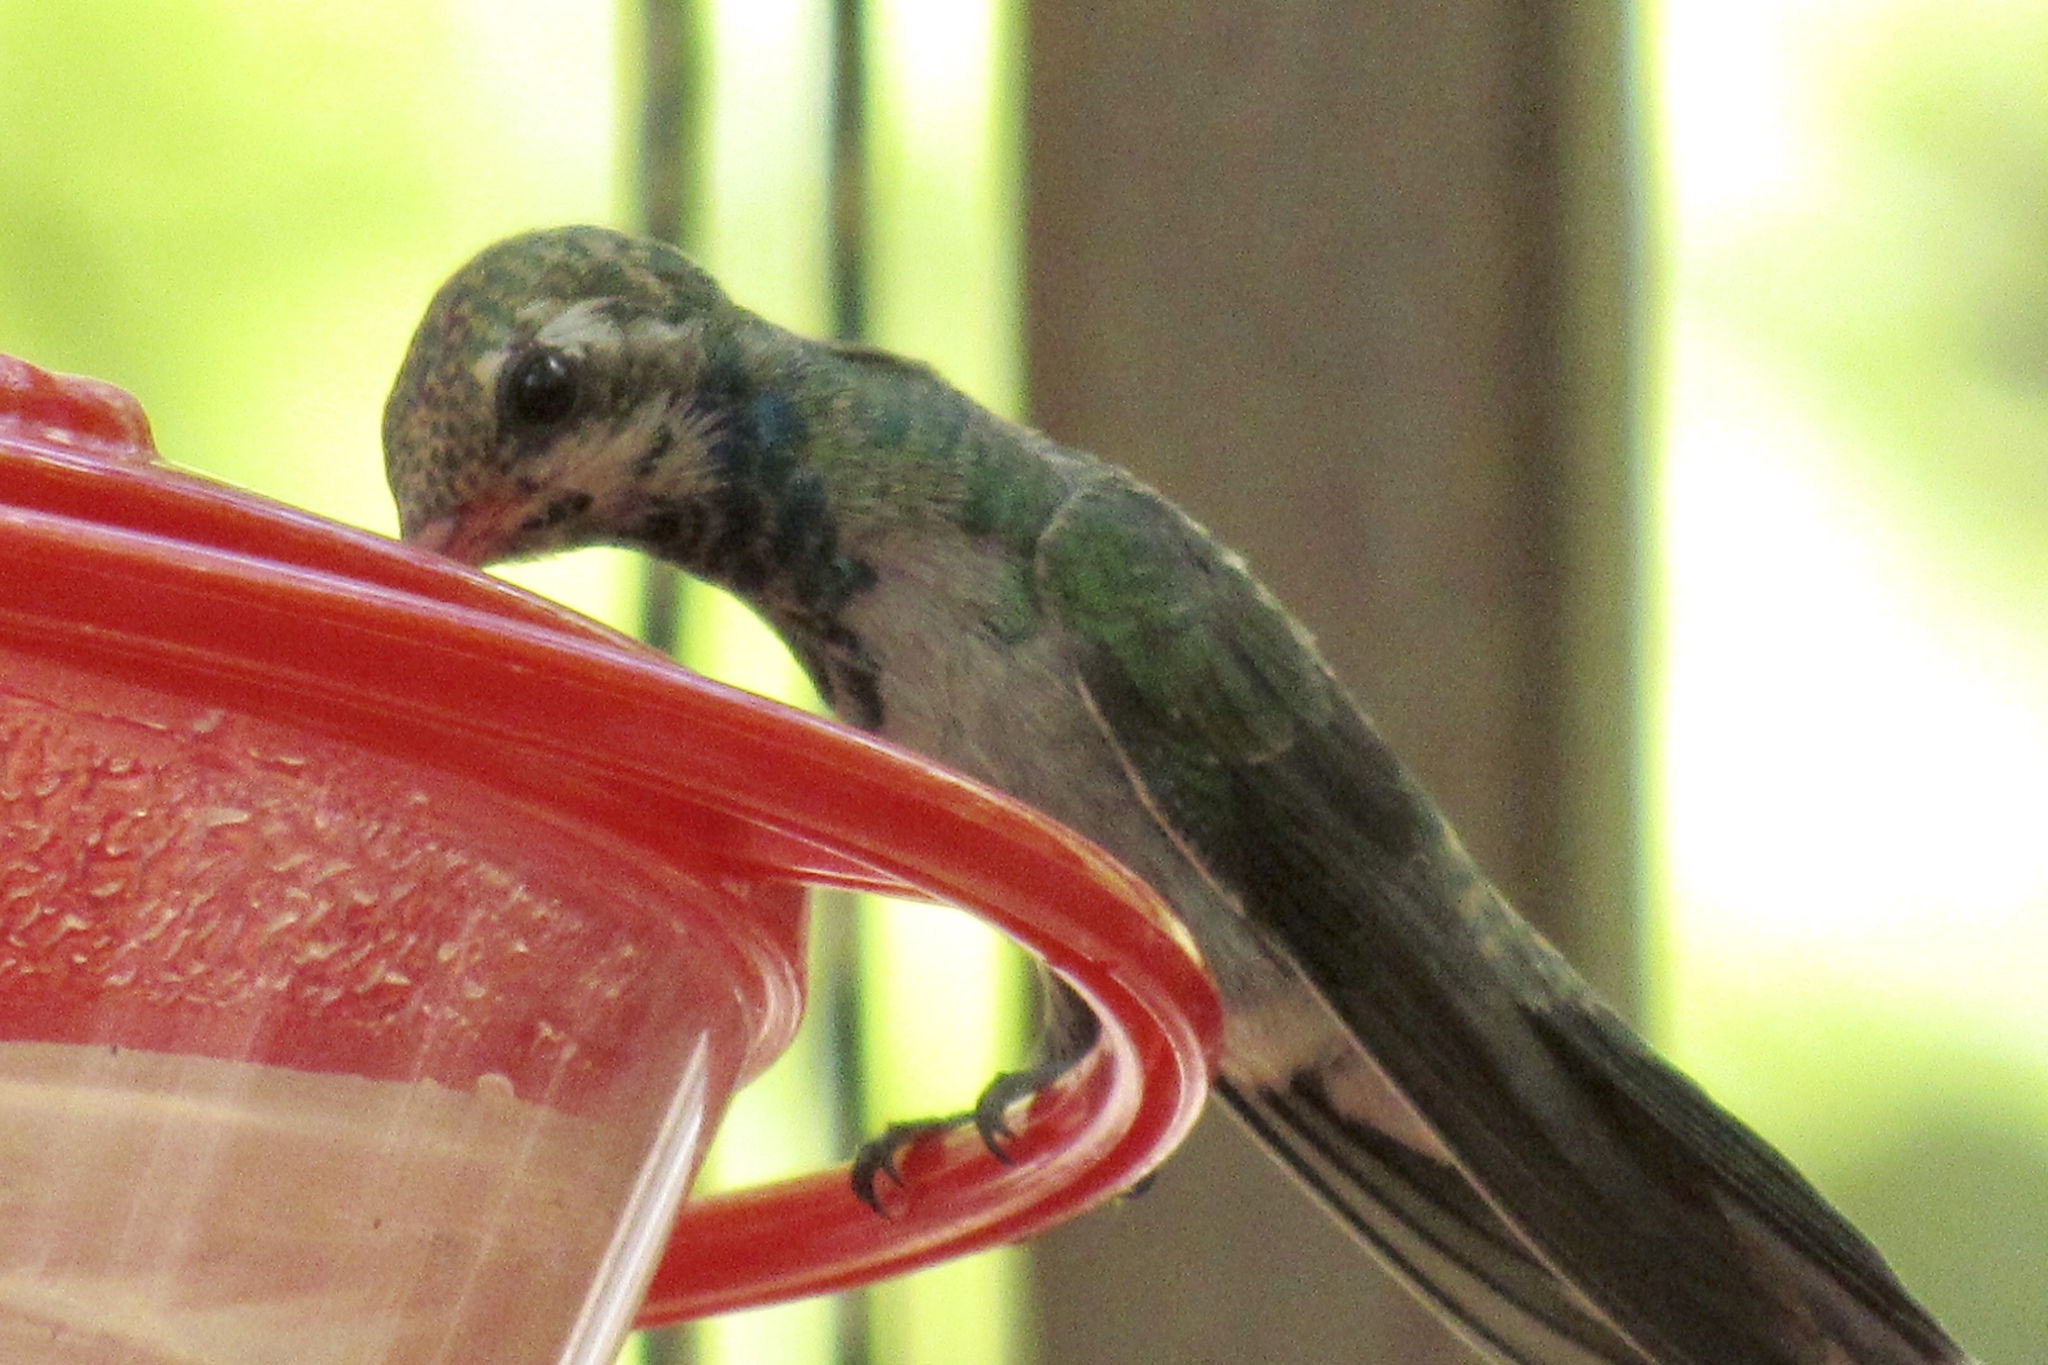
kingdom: Animalia
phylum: Chordata
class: Aves
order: Apodiformes
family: Trochilidae
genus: Cynanthus
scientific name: Cynanthus latirostris
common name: Broad-billed hummingbird
